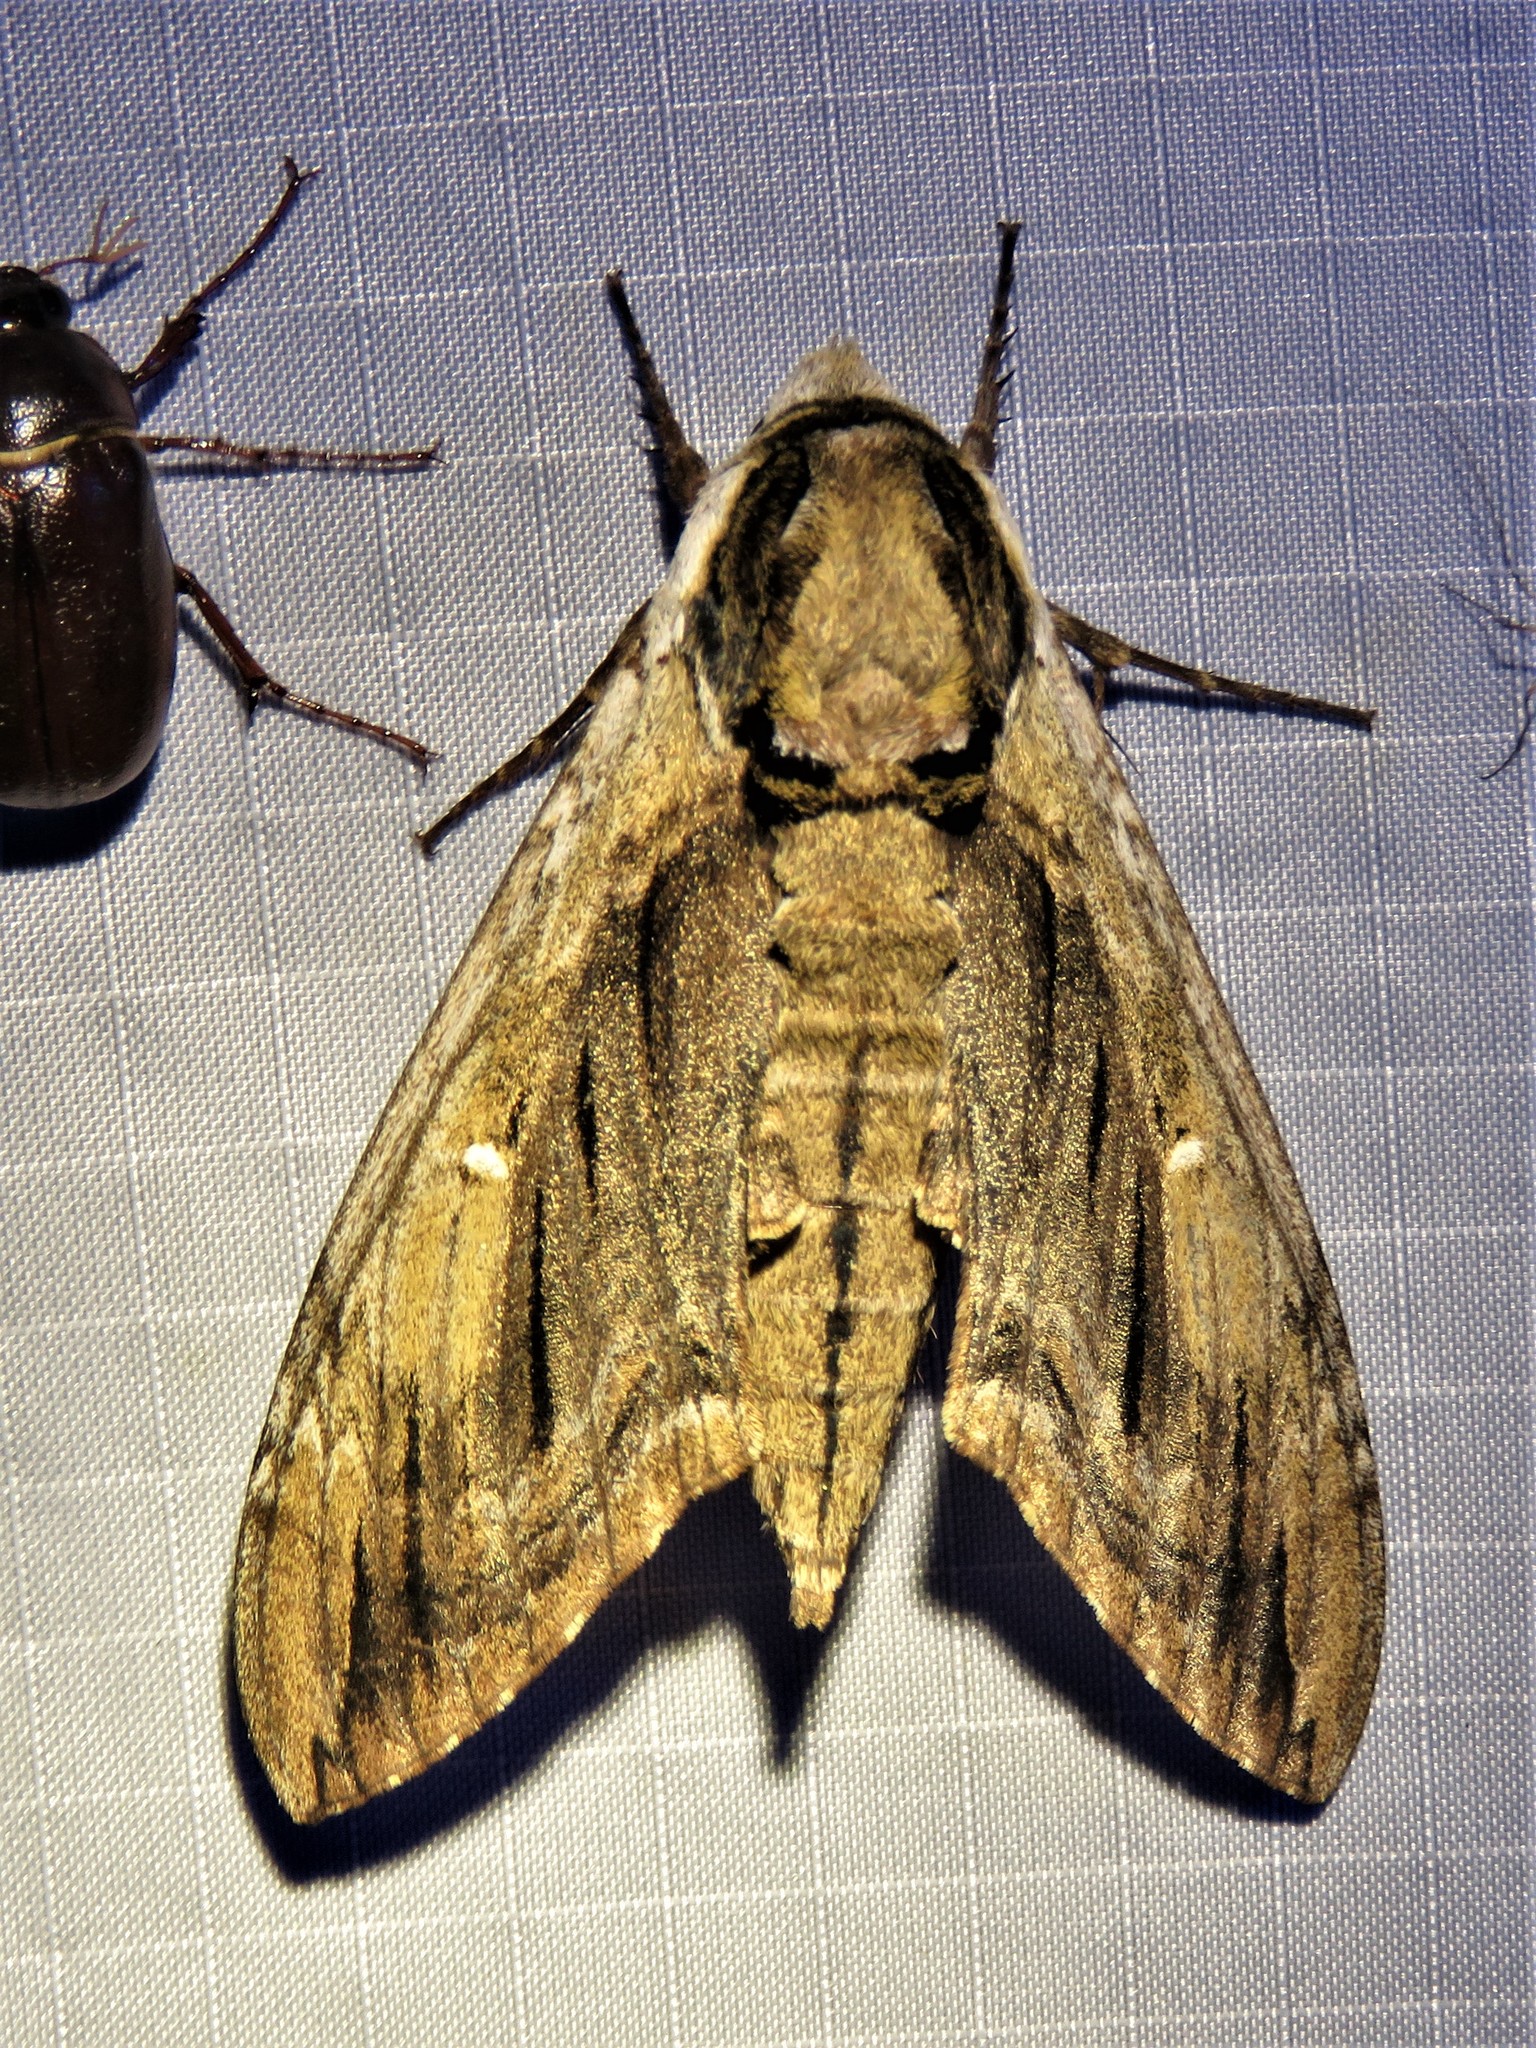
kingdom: Animalia
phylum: Arthropoda
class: Insecta
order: Lepidoptera
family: Sphingidae
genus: Ceratomia
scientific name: Ceratomia amyntor
